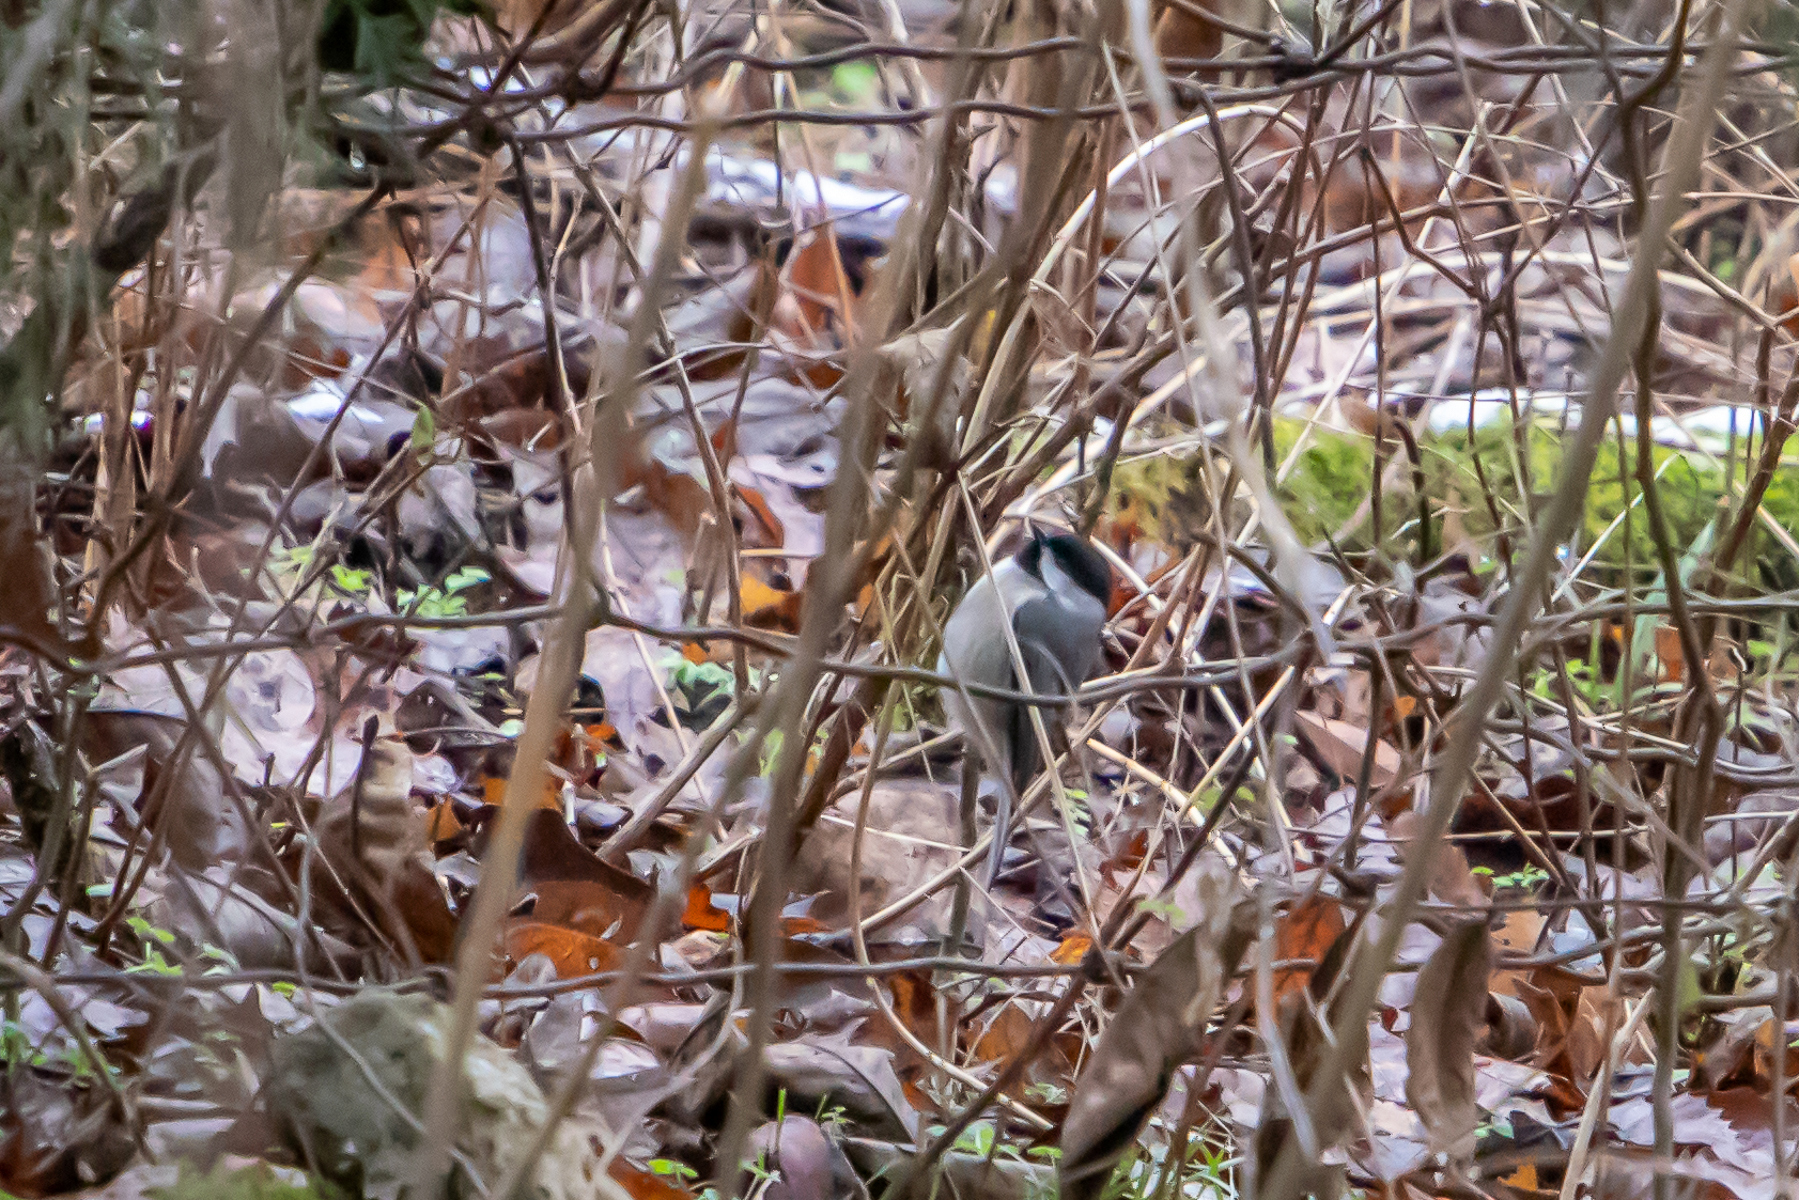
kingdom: Animalia
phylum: Chordata
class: Aves
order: Passeriformes
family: Paridae
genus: Poecile
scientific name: Poecile carolinensis
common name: Carolina chickadee
